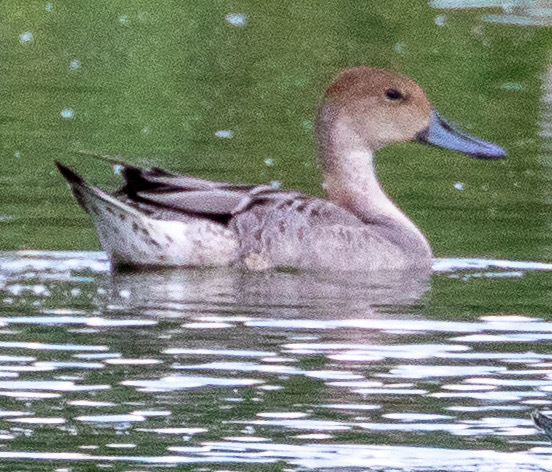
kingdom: Animalia
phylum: Chordata
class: Aves
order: Anseriformes
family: Anatidae
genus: Anas
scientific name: Anas acuta
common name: Northern pintail
